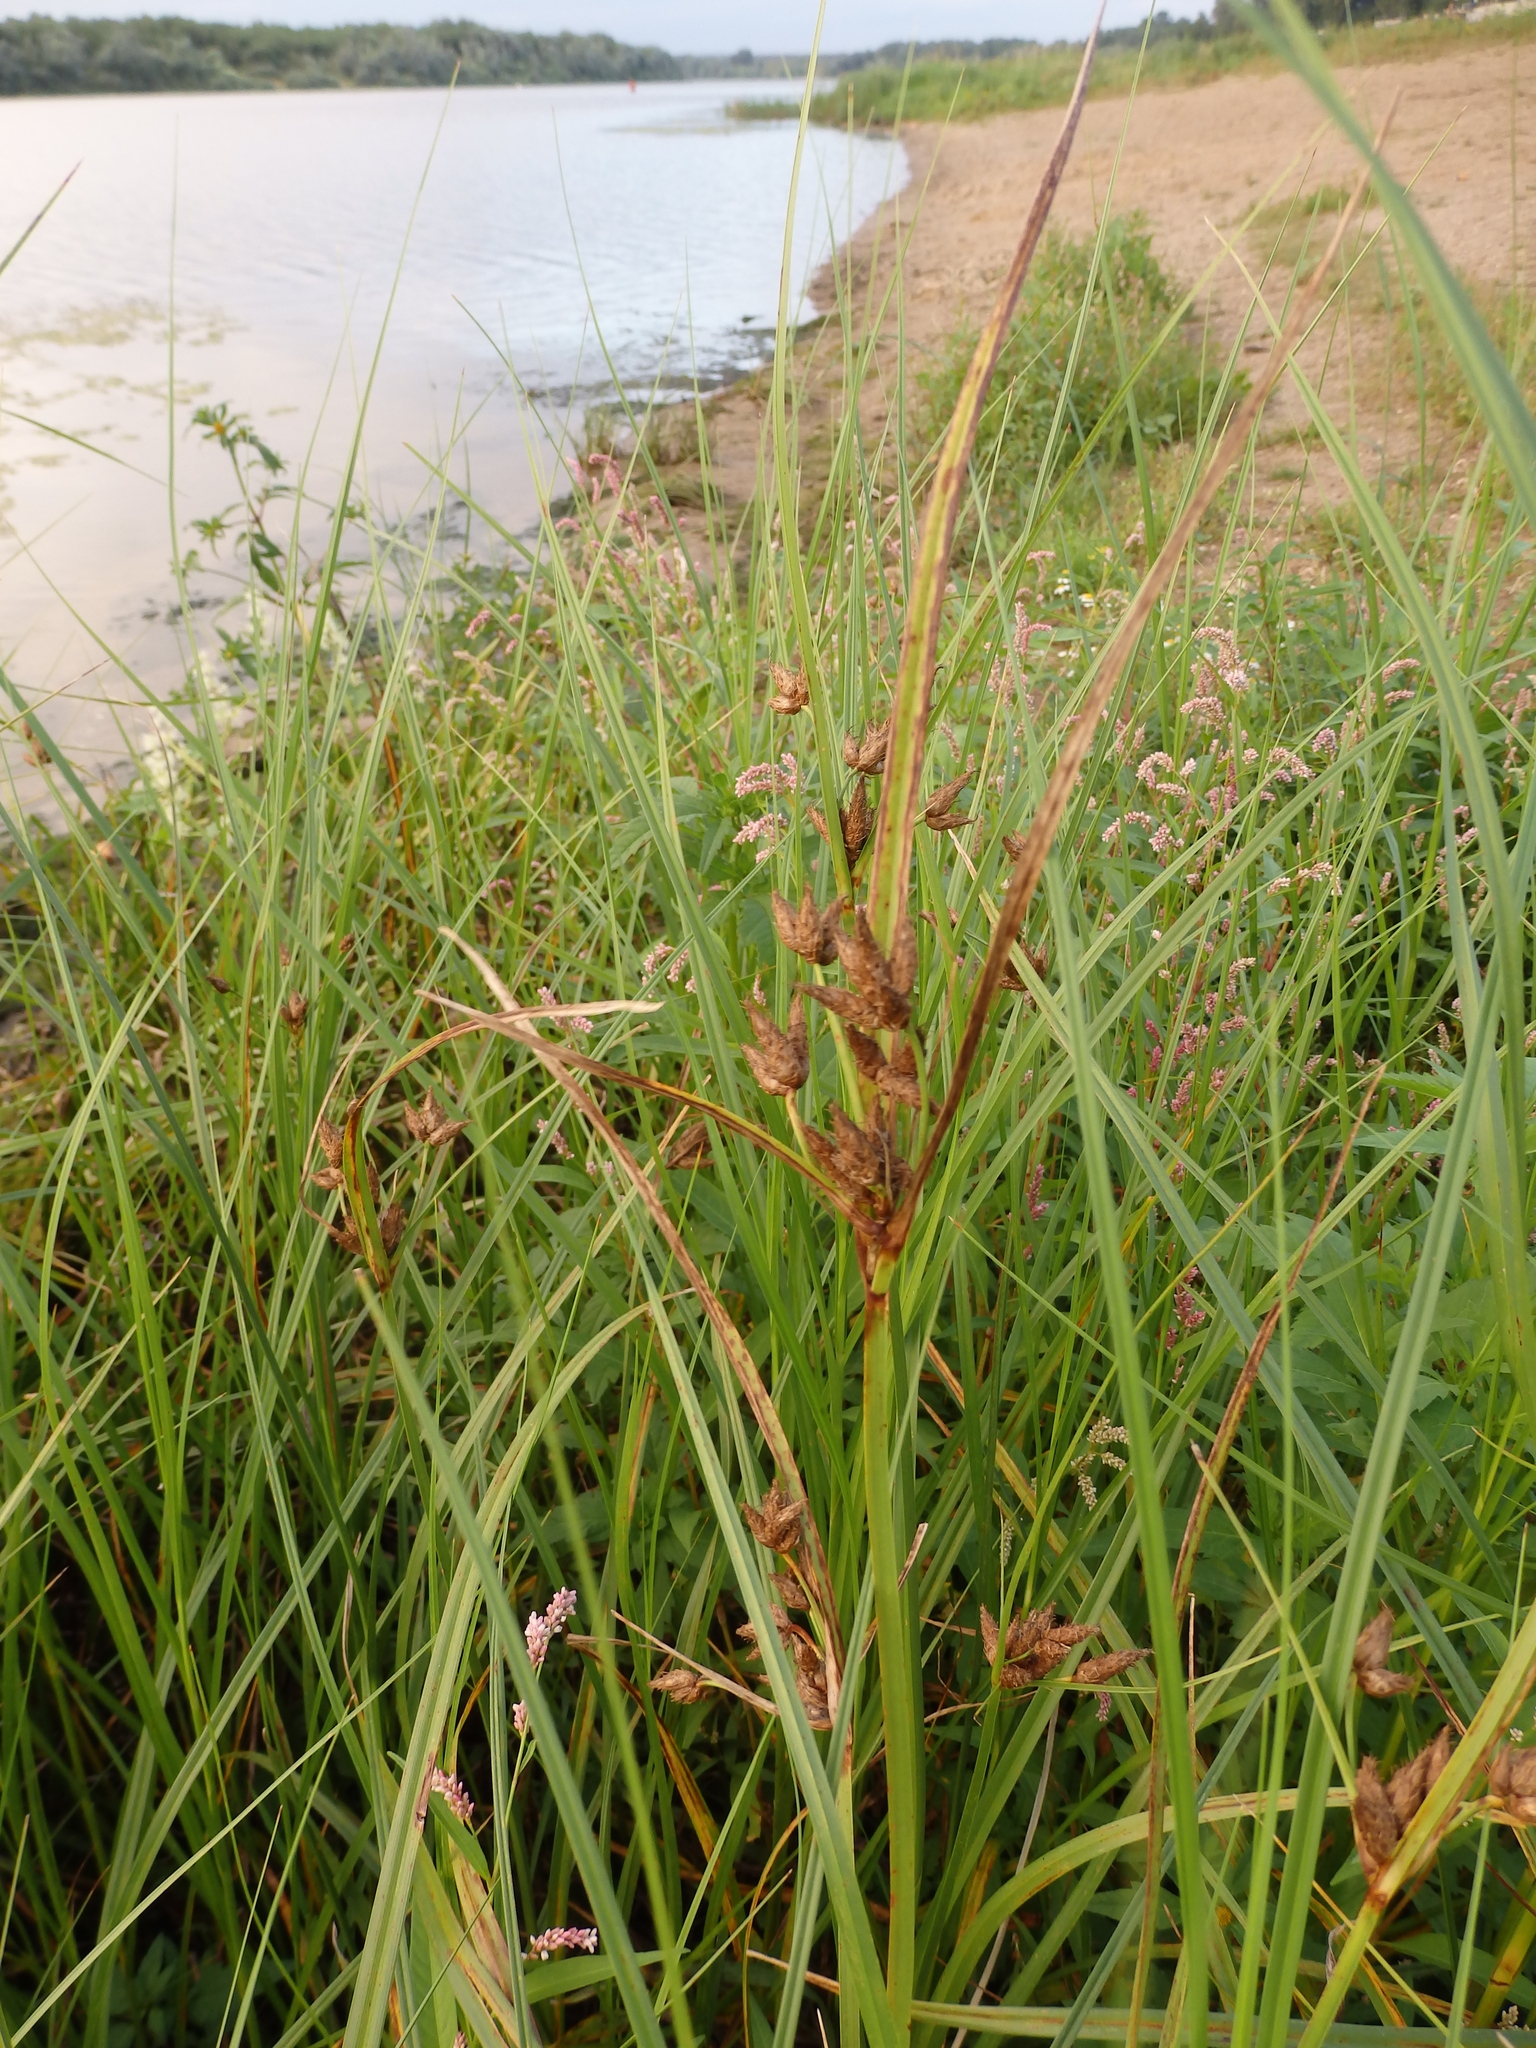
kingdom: Plantae
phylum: Tracheophyta
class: Liliopsida
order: Poales
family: Cyperaceae
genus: Bolboschoenus
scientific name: Bolboschoenus laticarpus
